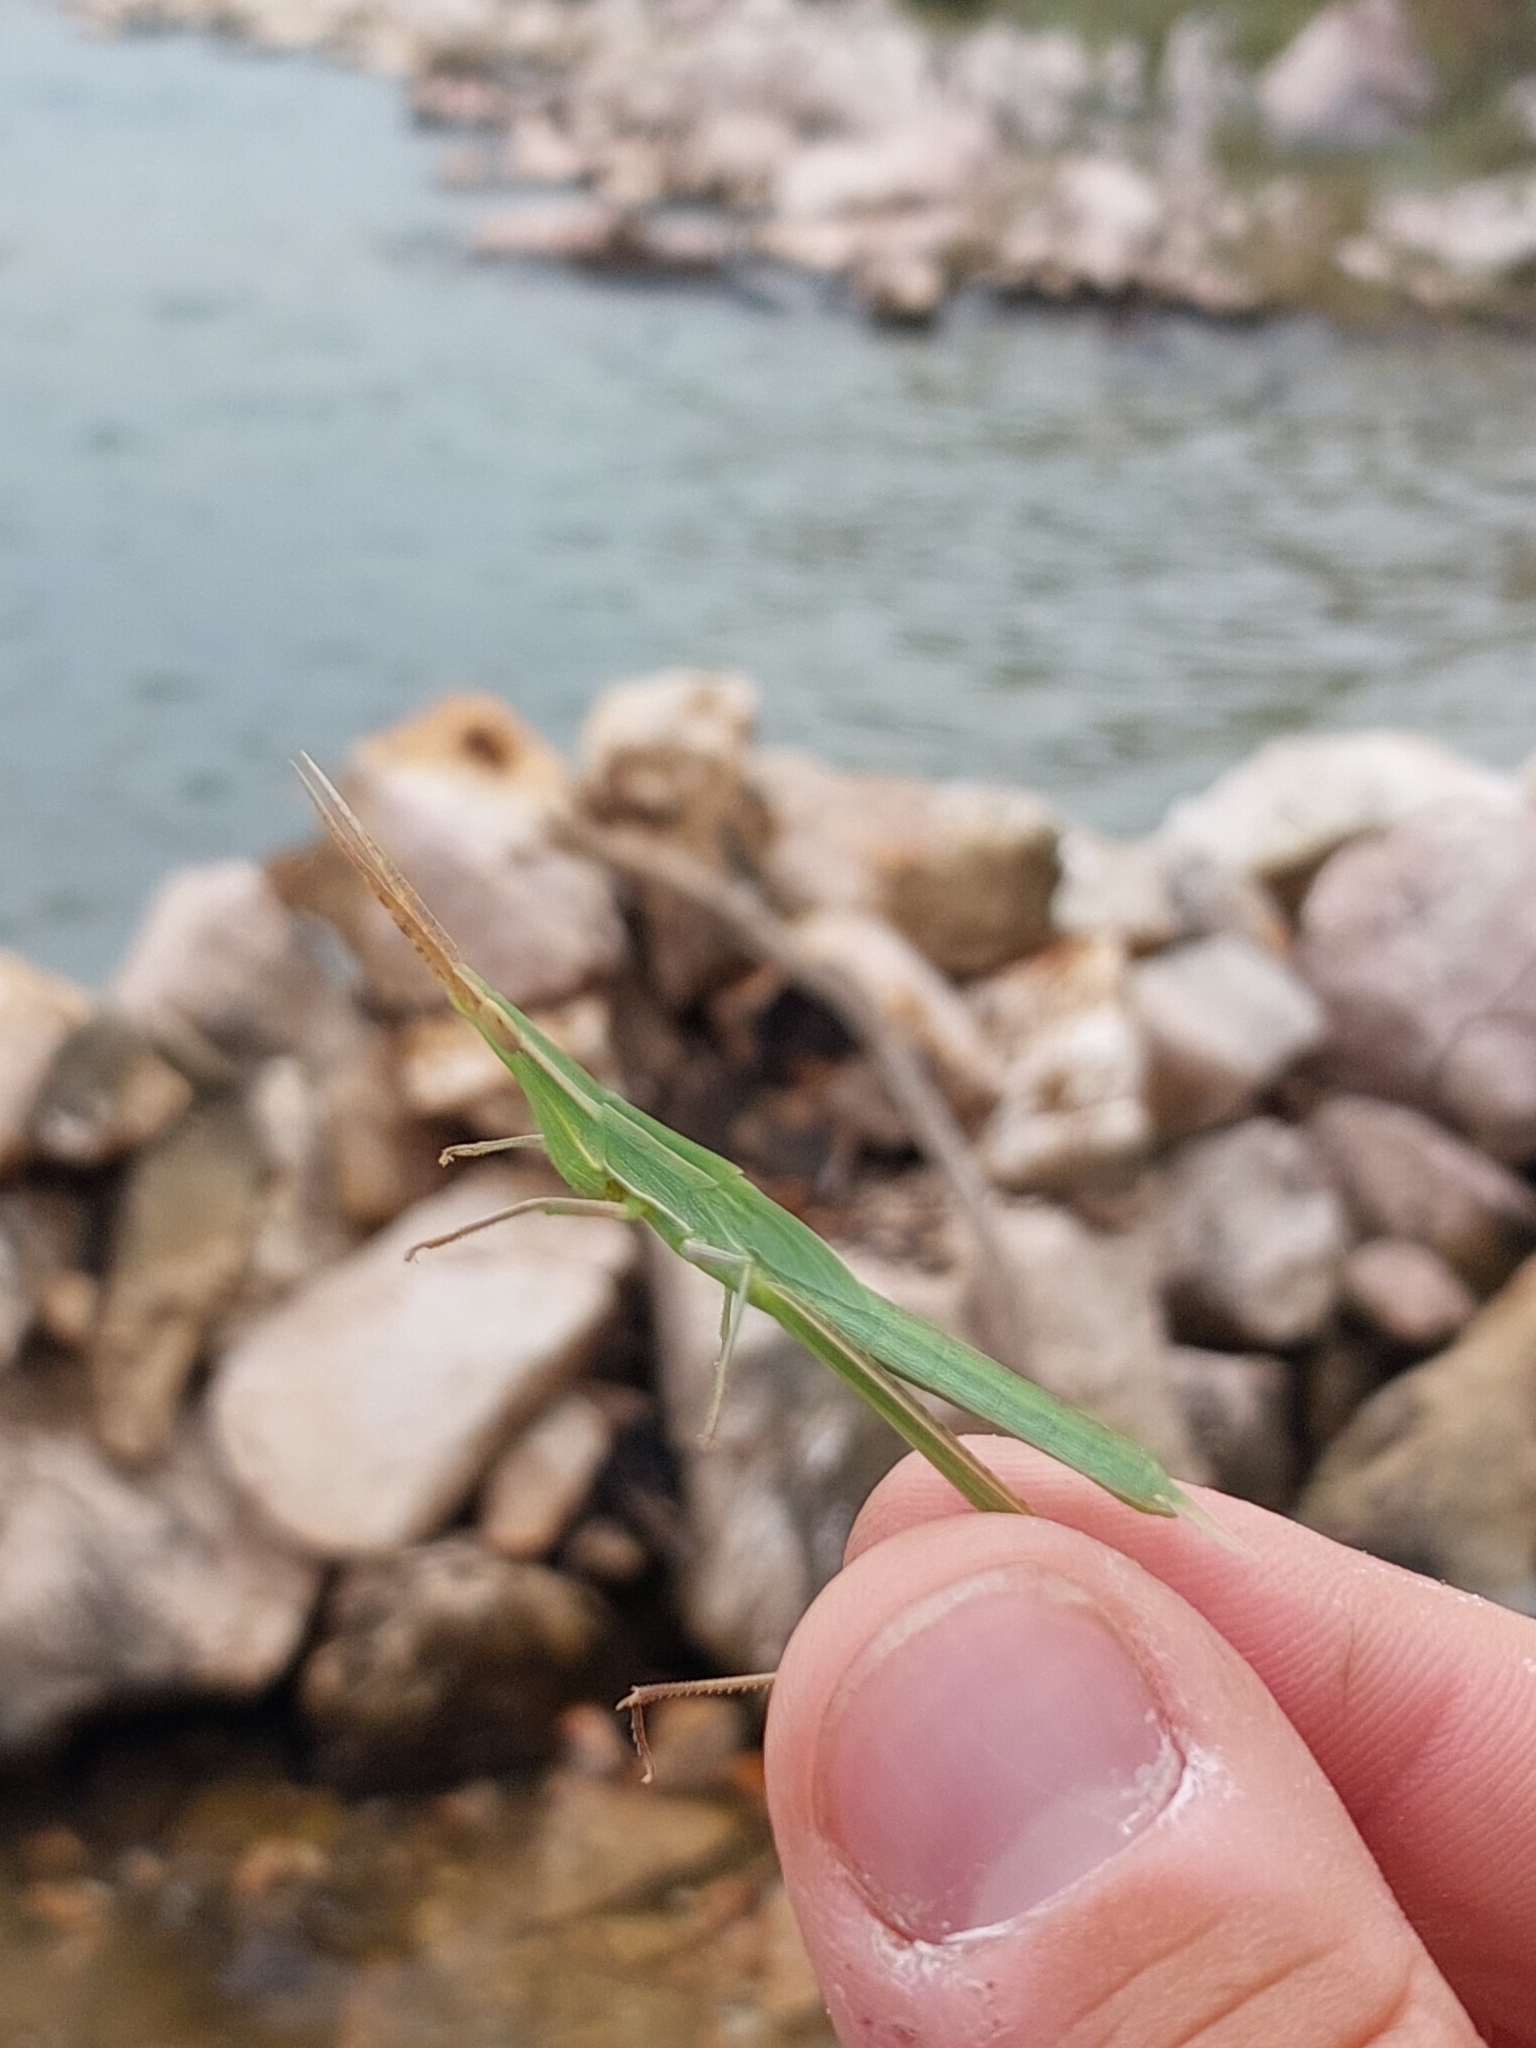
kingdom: Animalia
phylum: Arthropoda
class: Insecta
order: Orthoptera
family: Acrididae
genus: Acrida
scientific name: Acrida ungarica
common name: Common cone-headed grasshopper
